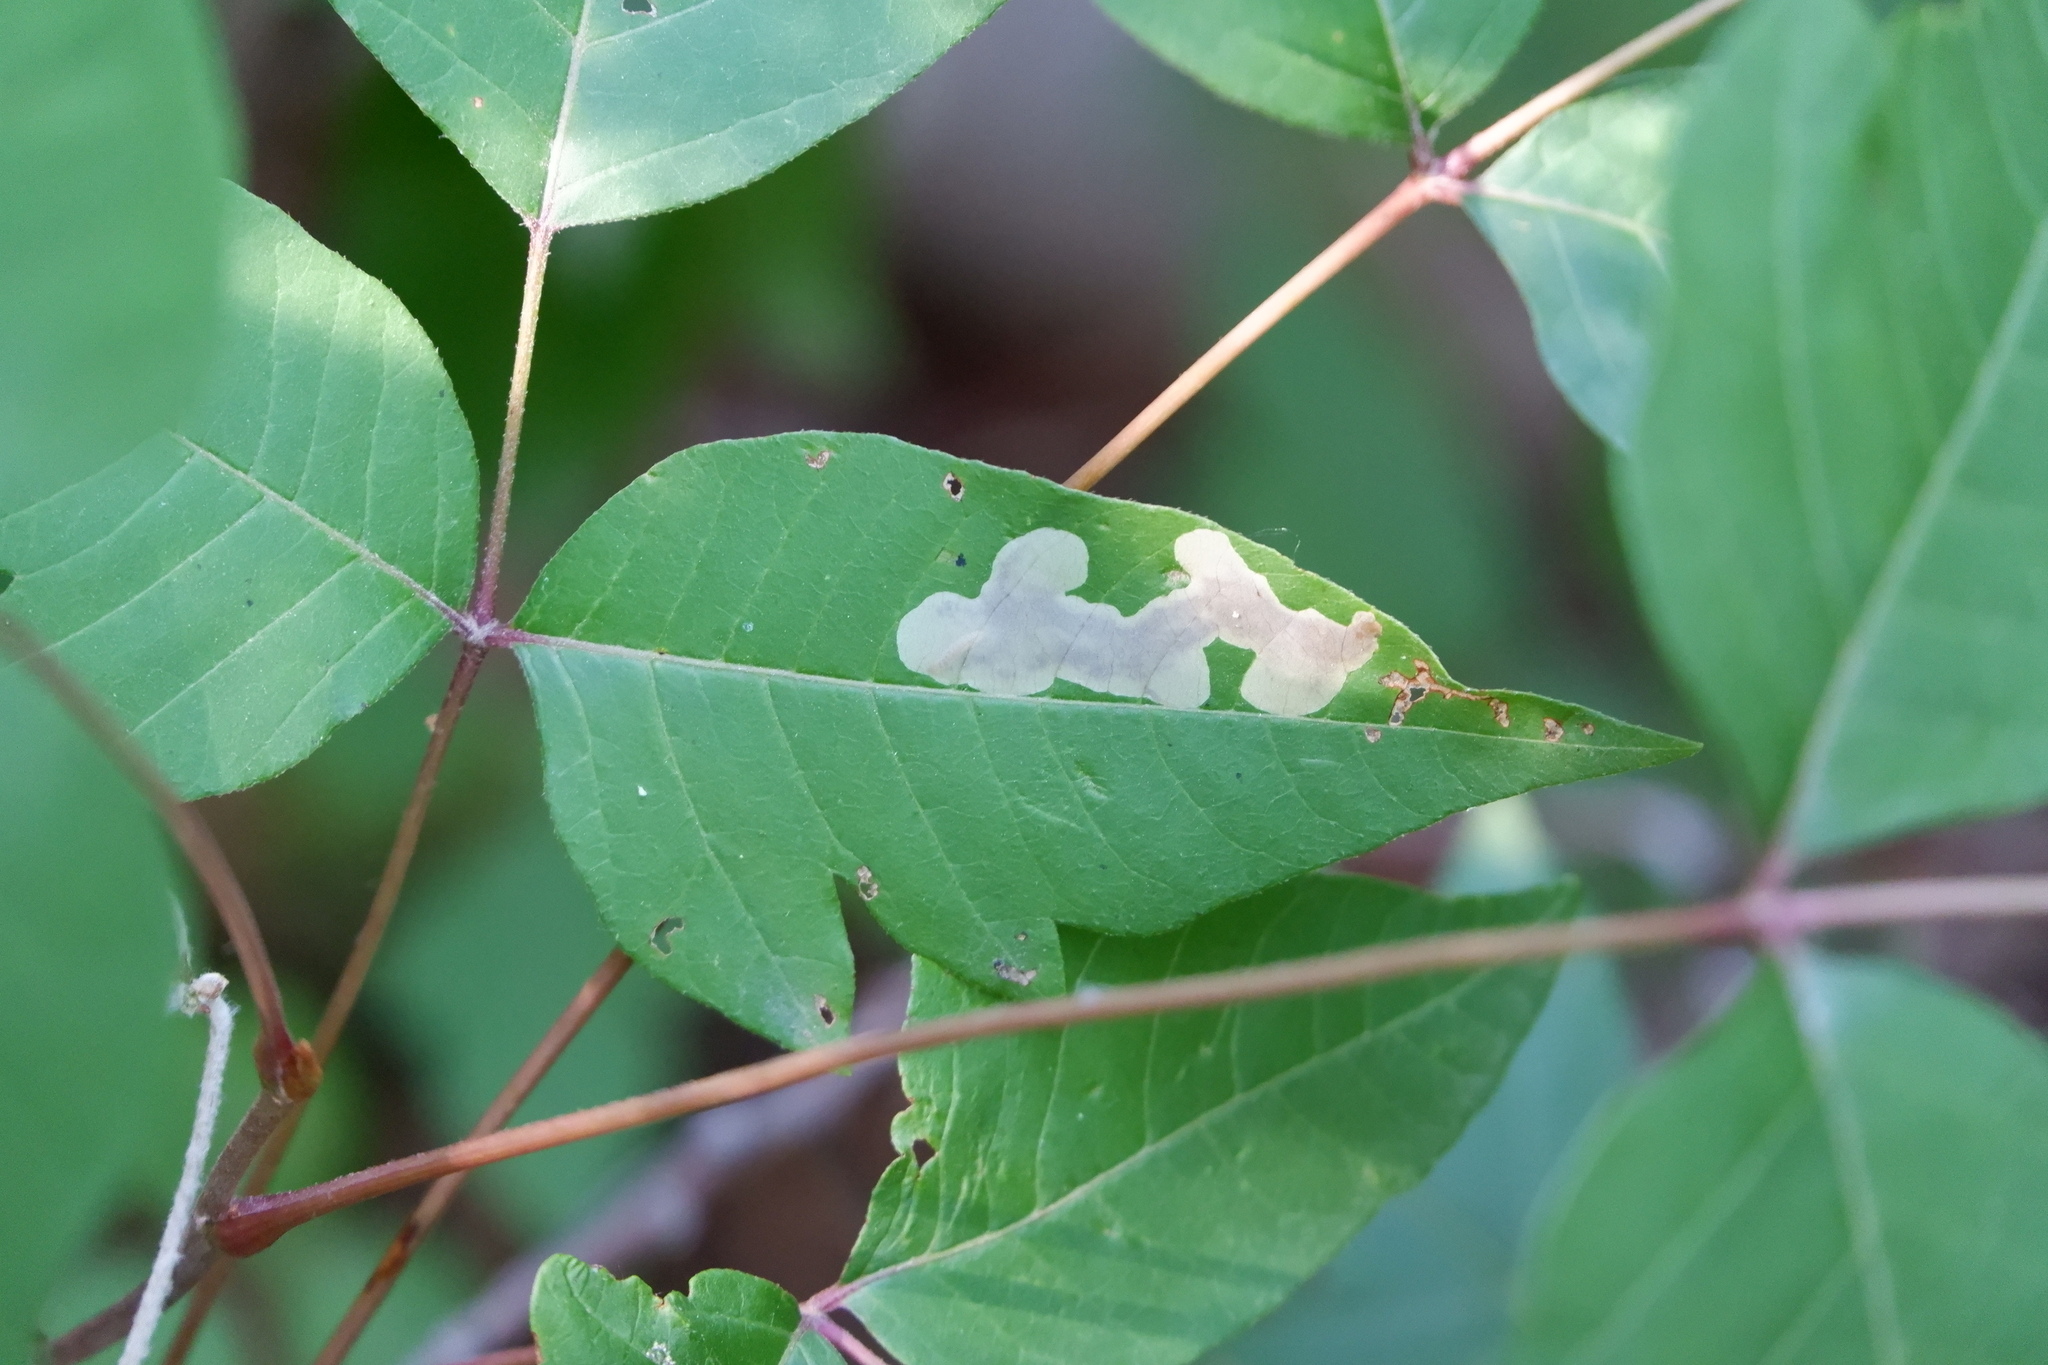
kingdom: Animalia
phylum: Arthropoda
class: Insecta
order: Lepidoptera
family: Gracillariidae
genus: Cameraria
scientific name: Cameraria guttifinitella
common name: Poison ivy leaf-miner moth
